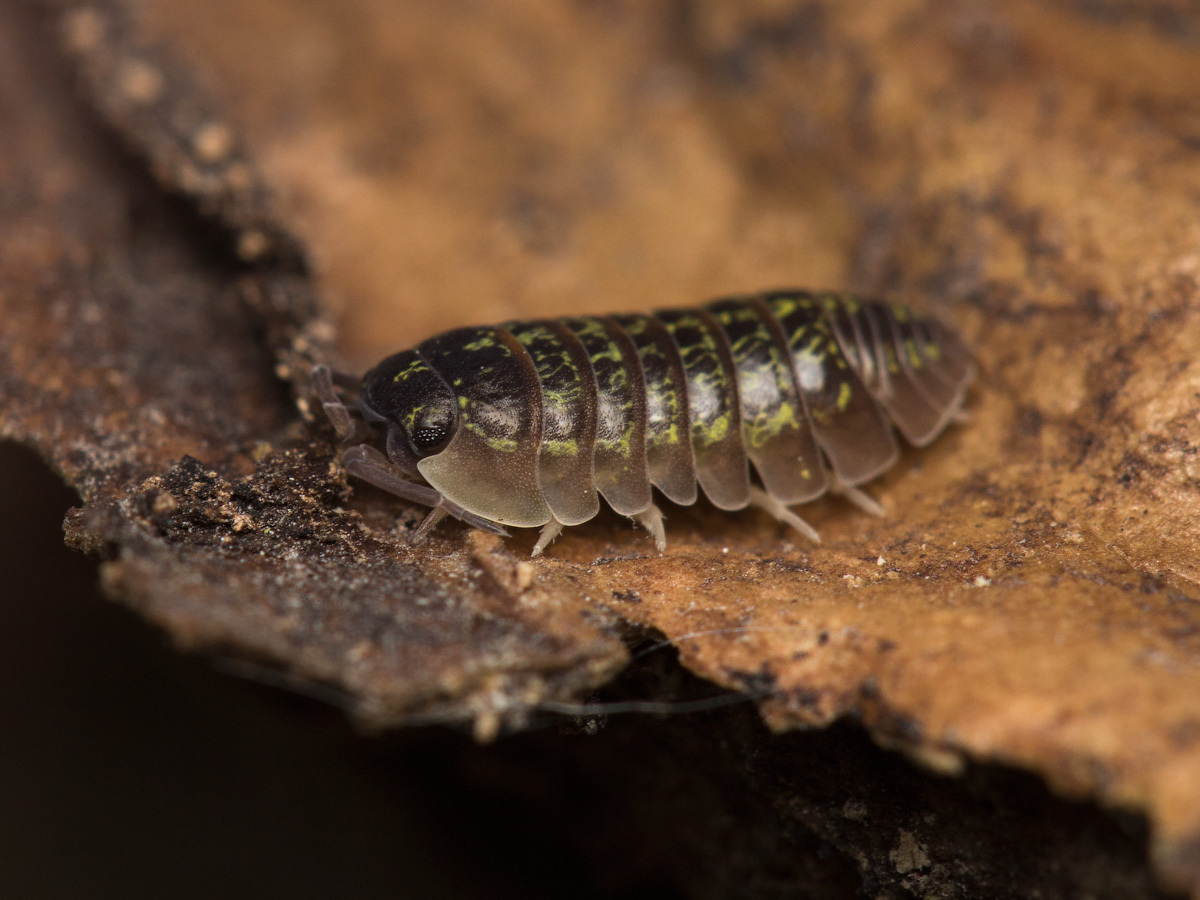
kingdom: Animalia
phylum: Arthropoda
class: Malacostraca
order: Isopoda
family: Armadillidiidae
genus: Armadillidium
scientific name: Armadillidium versicolor
